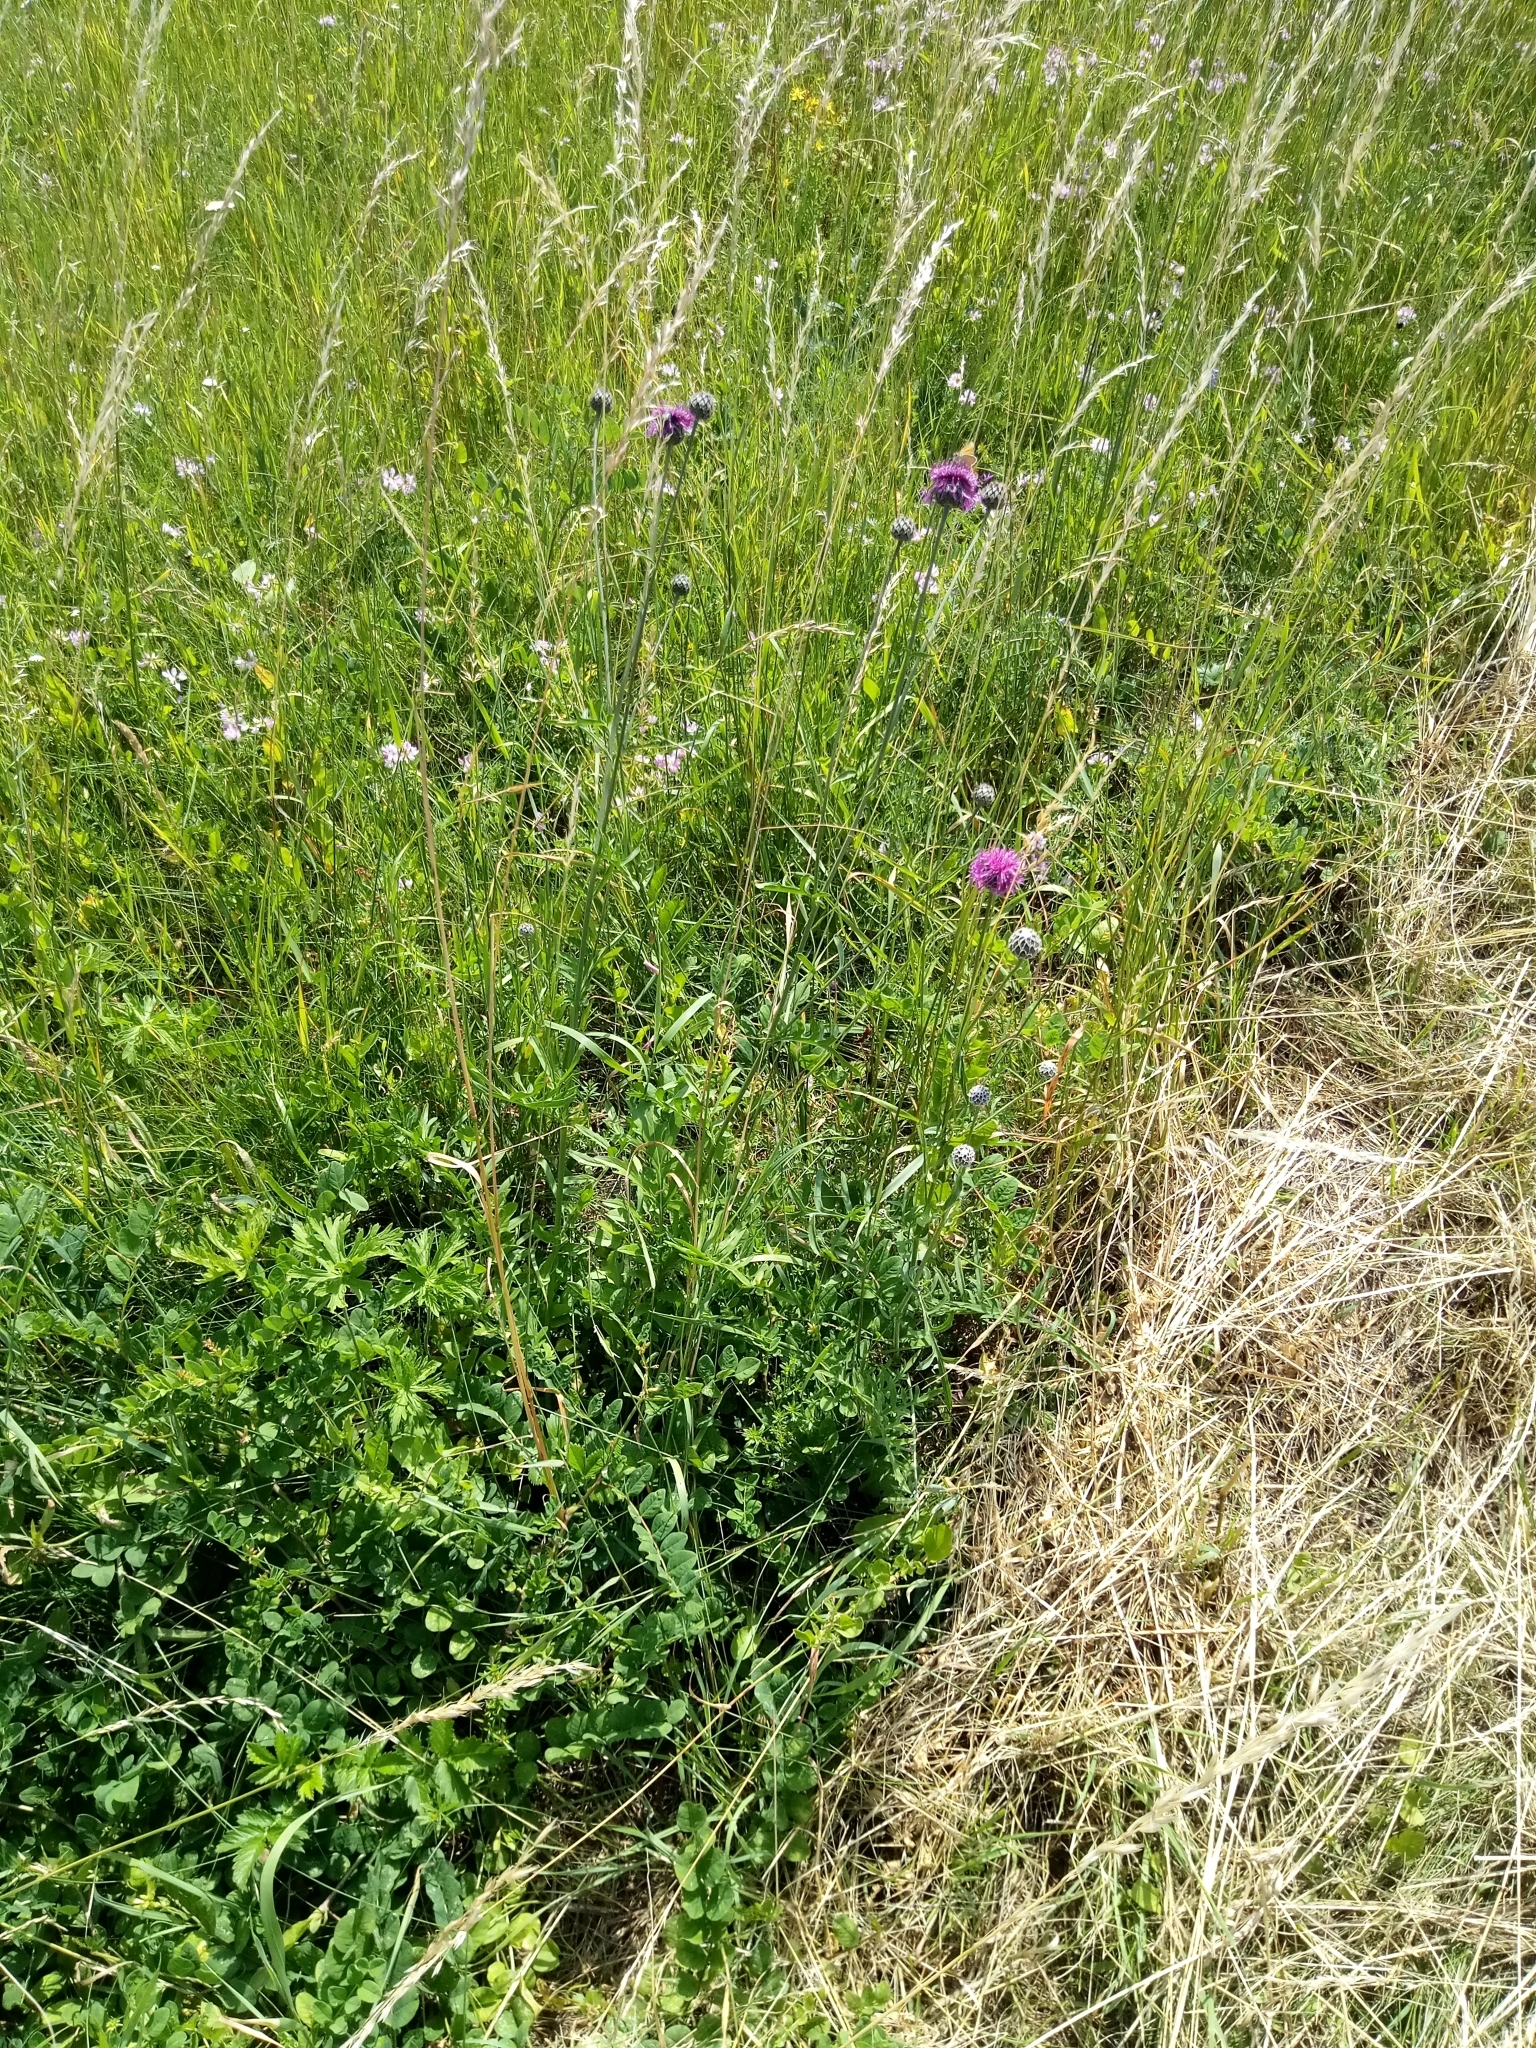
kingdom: Plantae
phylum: Tracheophyta
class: Magnoliopsida
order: Asterales
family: Asteraceae
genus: Centaurea
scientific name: Centaurea scabiosa
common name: Greater knapweed
